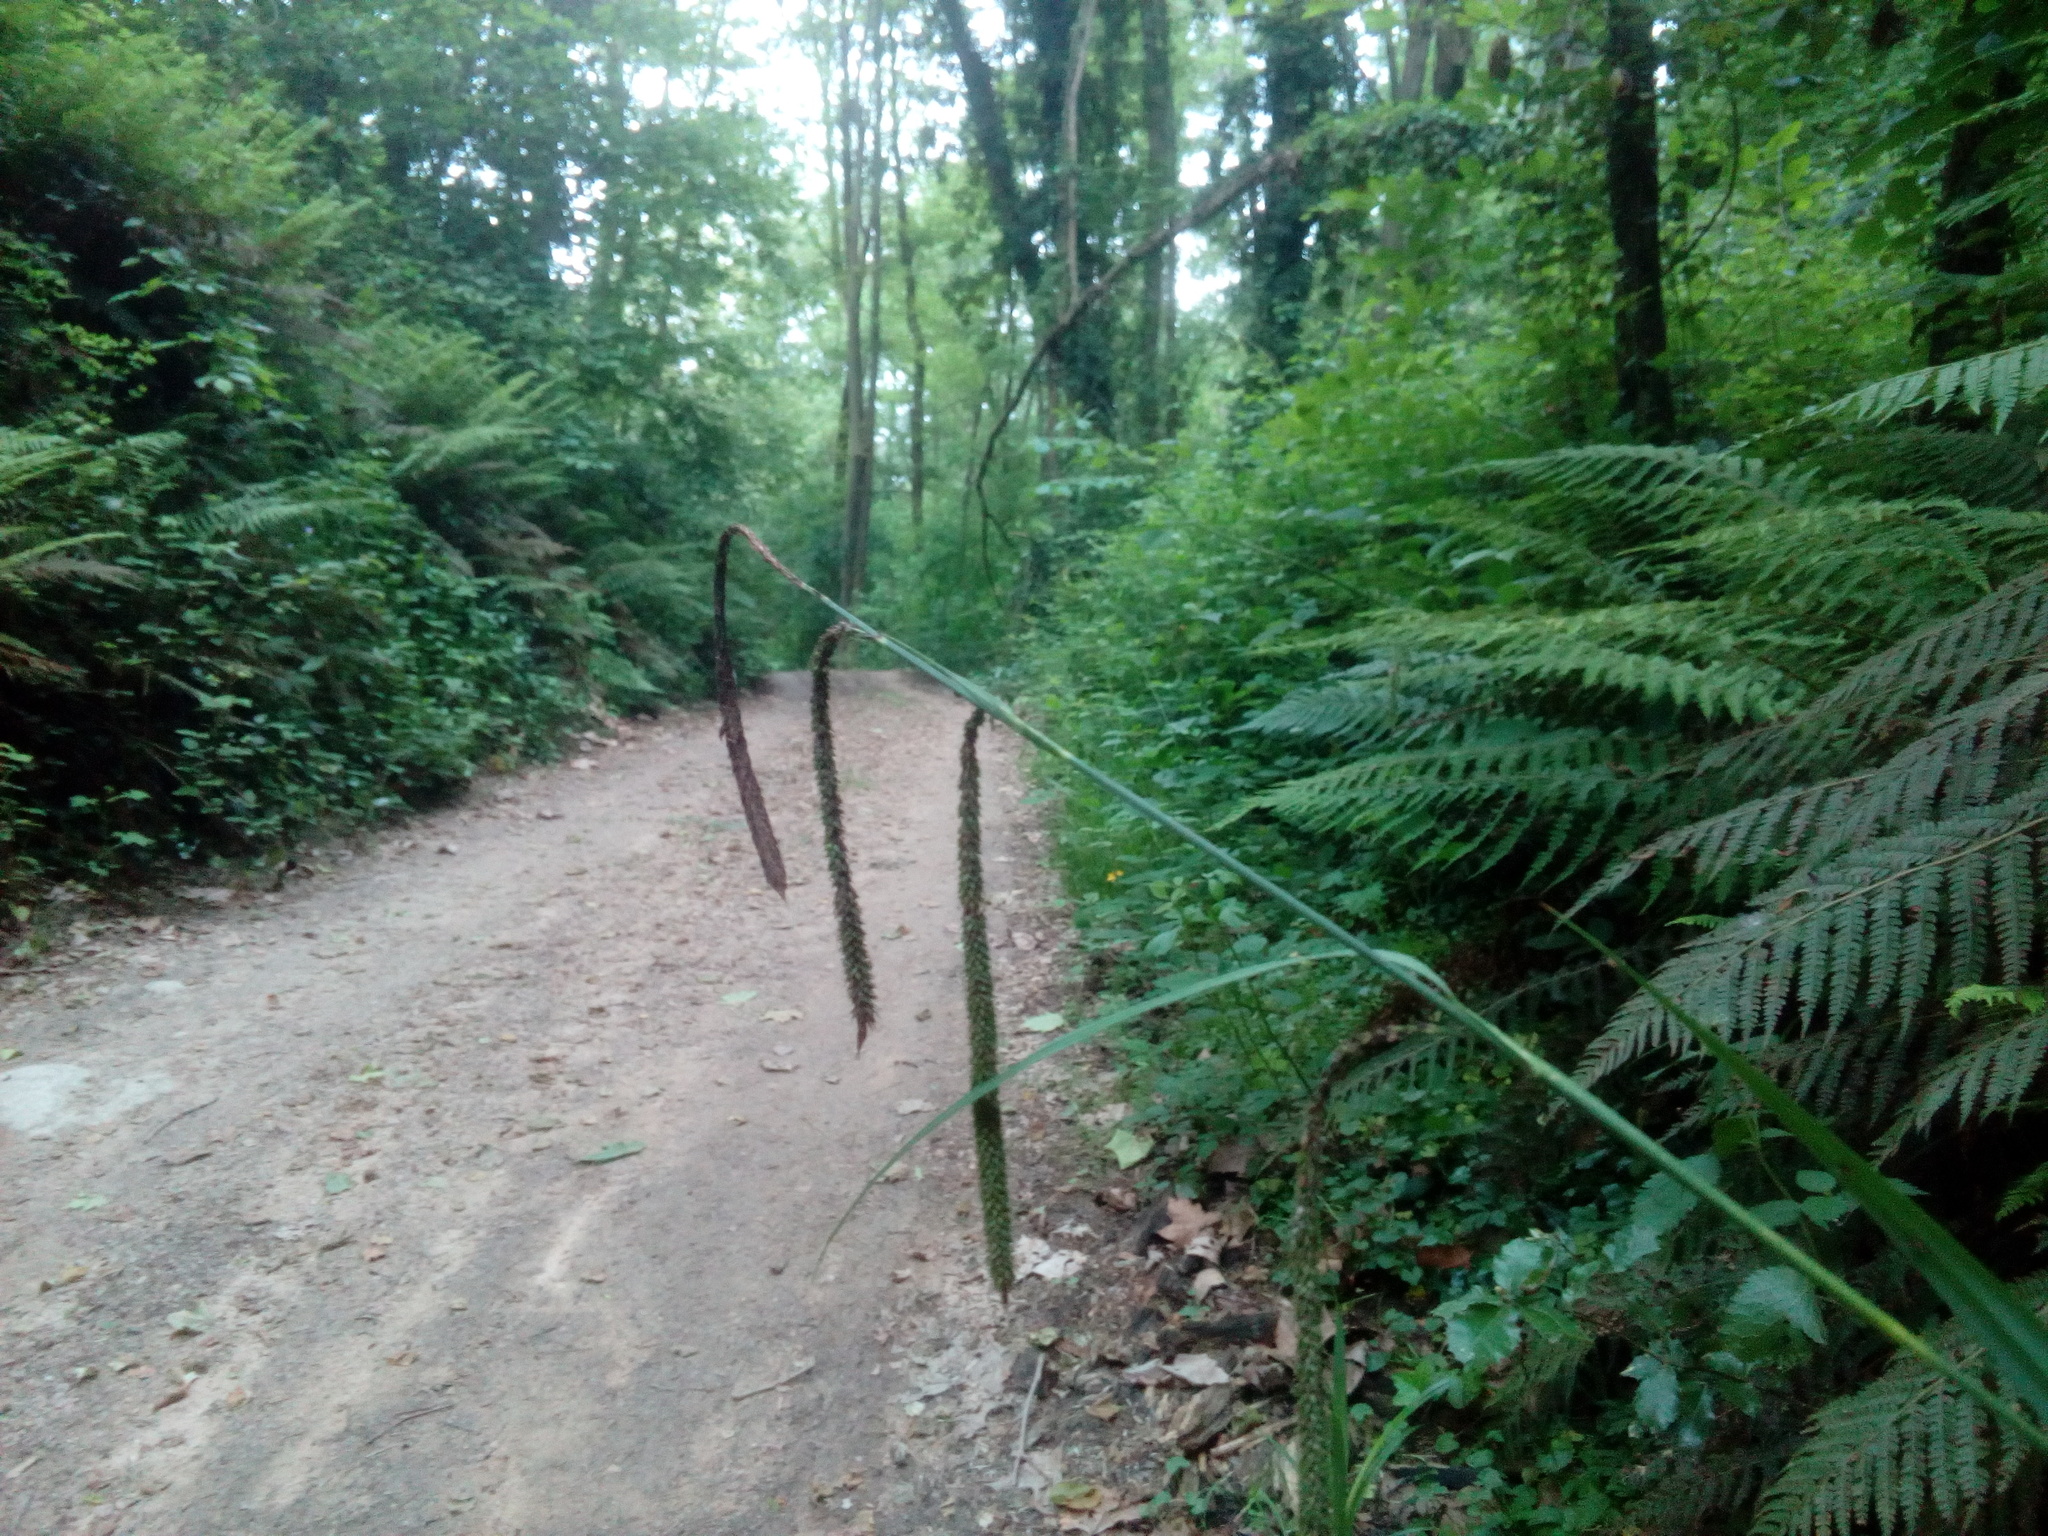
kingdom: Plantae
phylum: Tracheophyta
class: Liliopsida
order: Poales
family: Cyperaceae
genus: Carex
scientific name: Carex pendula
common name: Pendulous sedge
